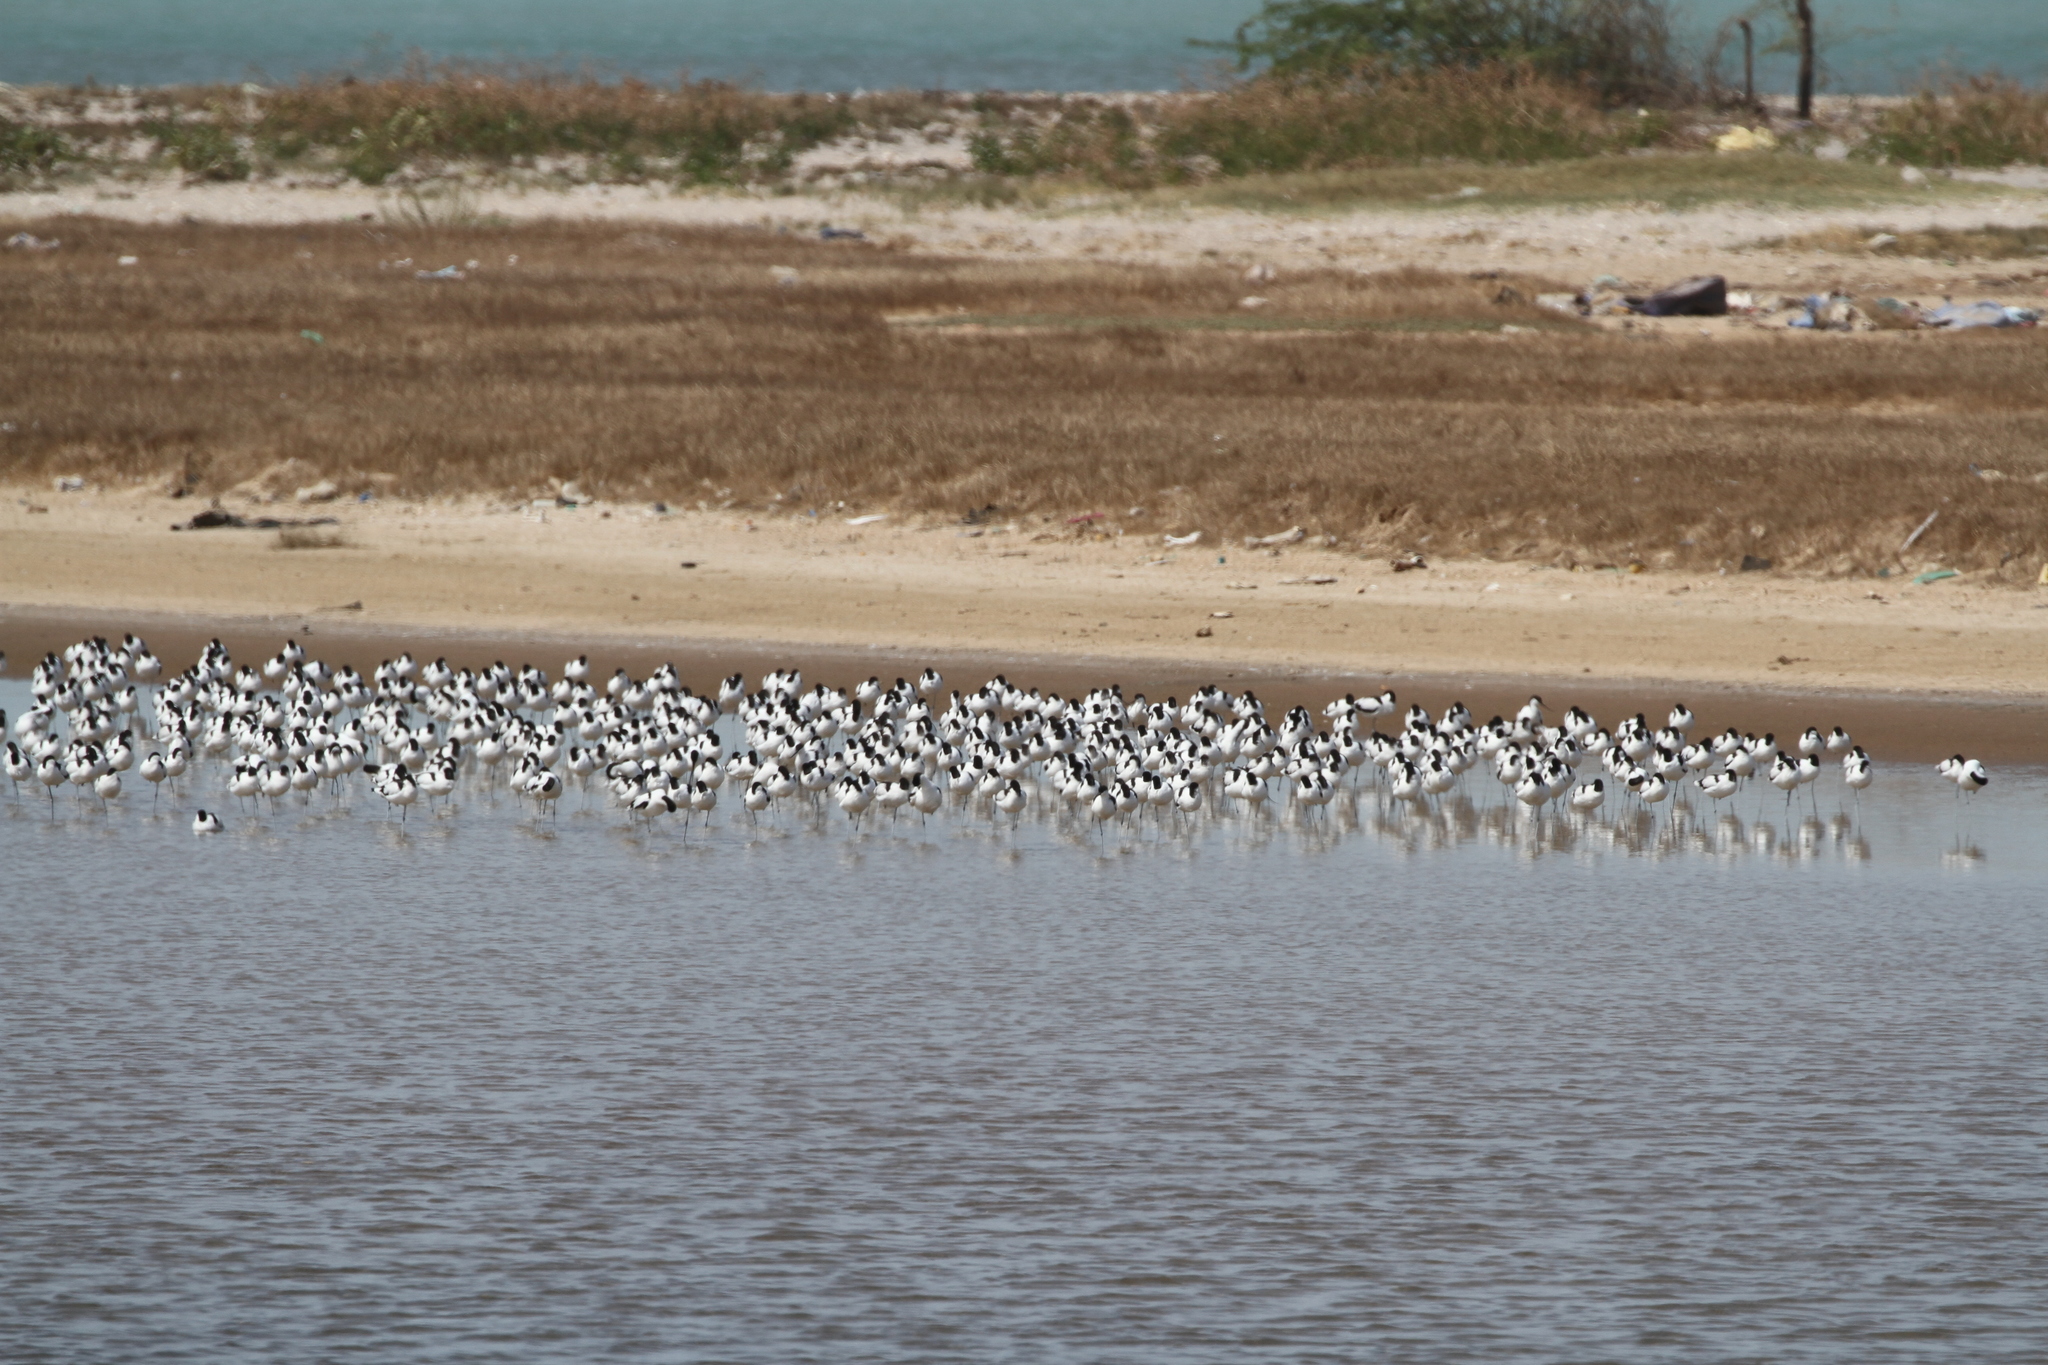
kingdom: Animalia
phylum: Chordata
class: Aves
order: Charadriiformes
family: Recurvirostridae
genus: Recurvirostra
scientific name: Recurvirostra avosetta
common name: Pied avocet
